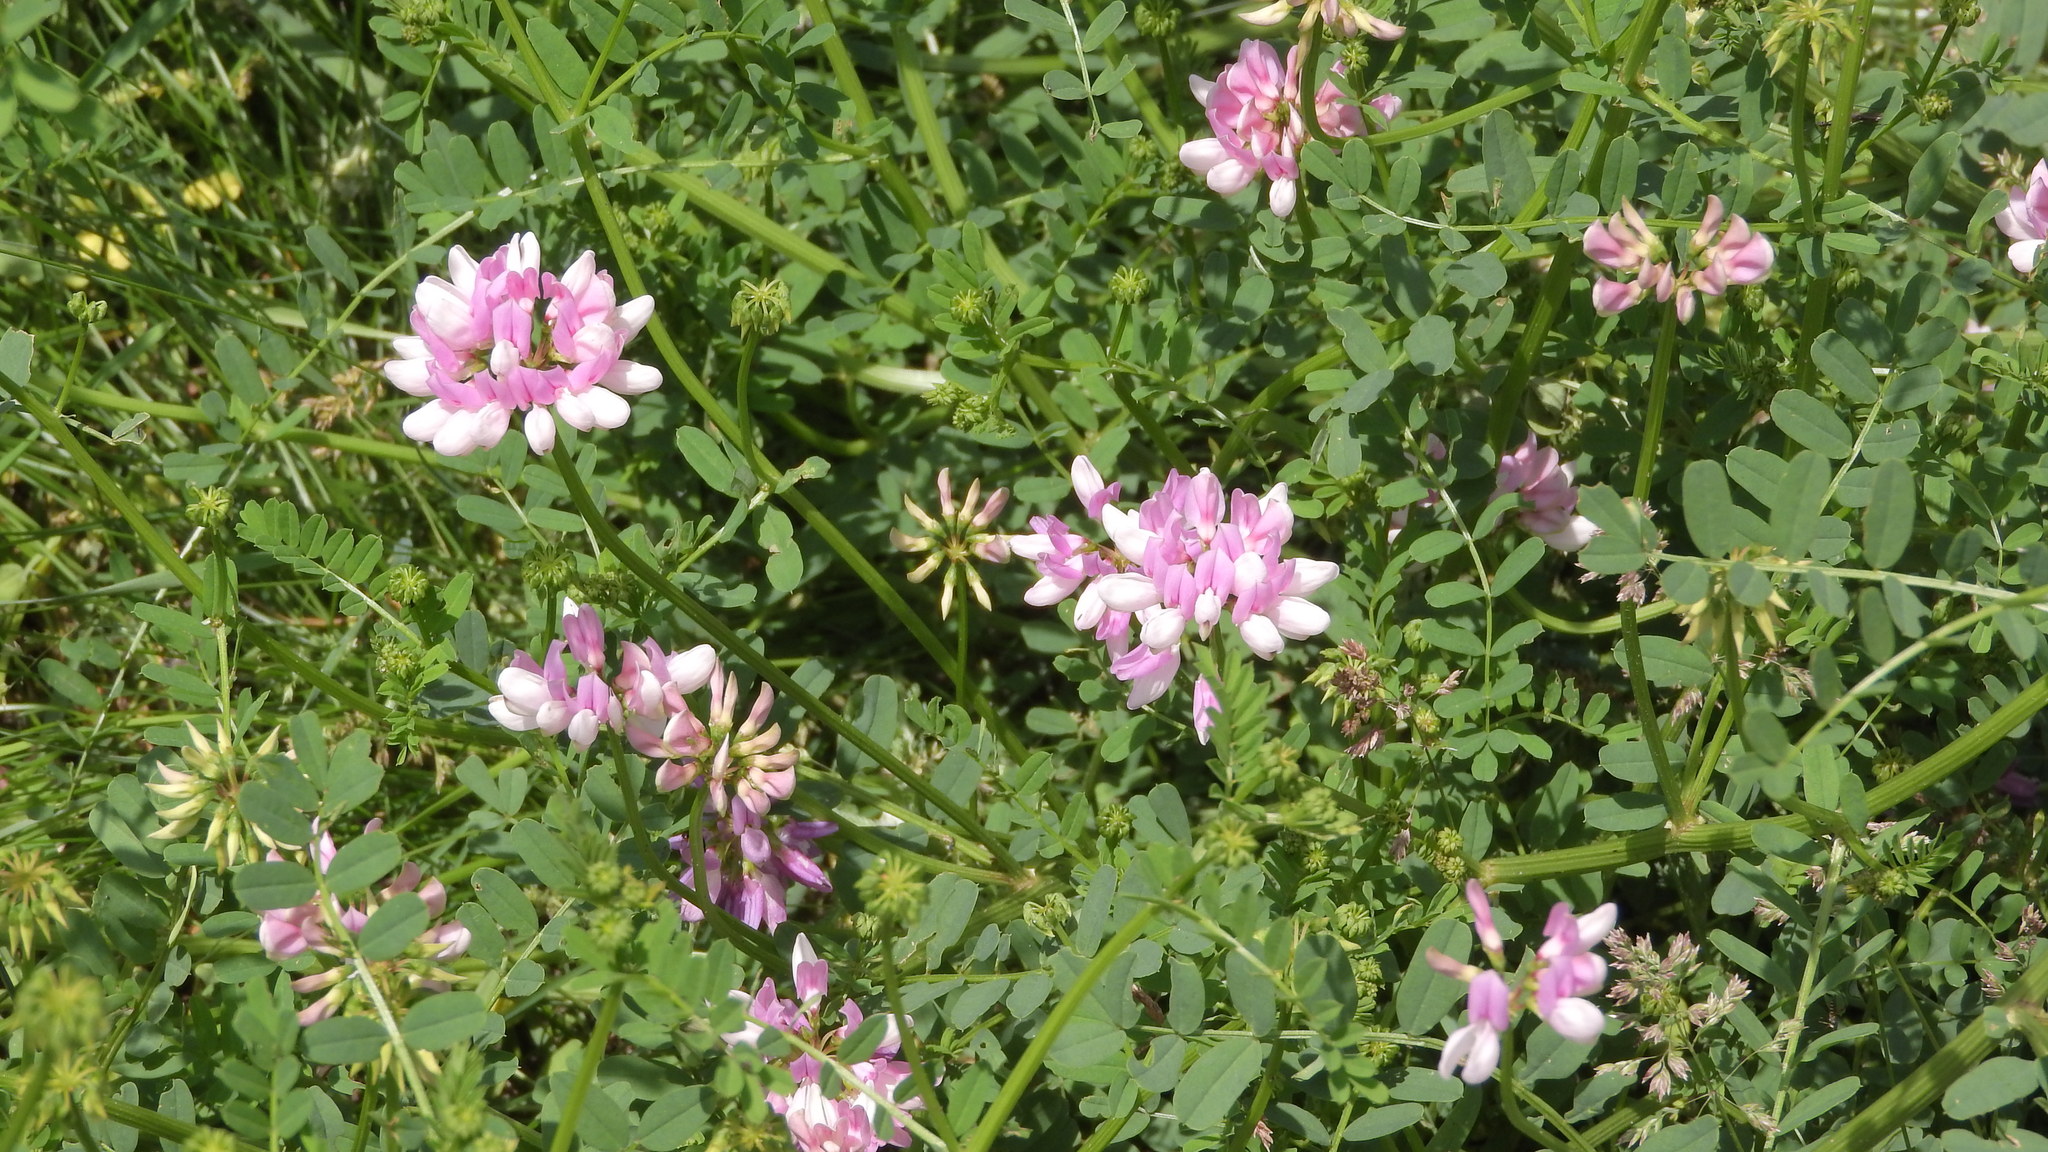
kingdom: Plantae
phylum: Tracheophyta
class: Magnoliopsida
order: Fabales
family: Fabaceae
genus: Coronilla
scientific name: Coronilla varia
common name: Crownvetch
